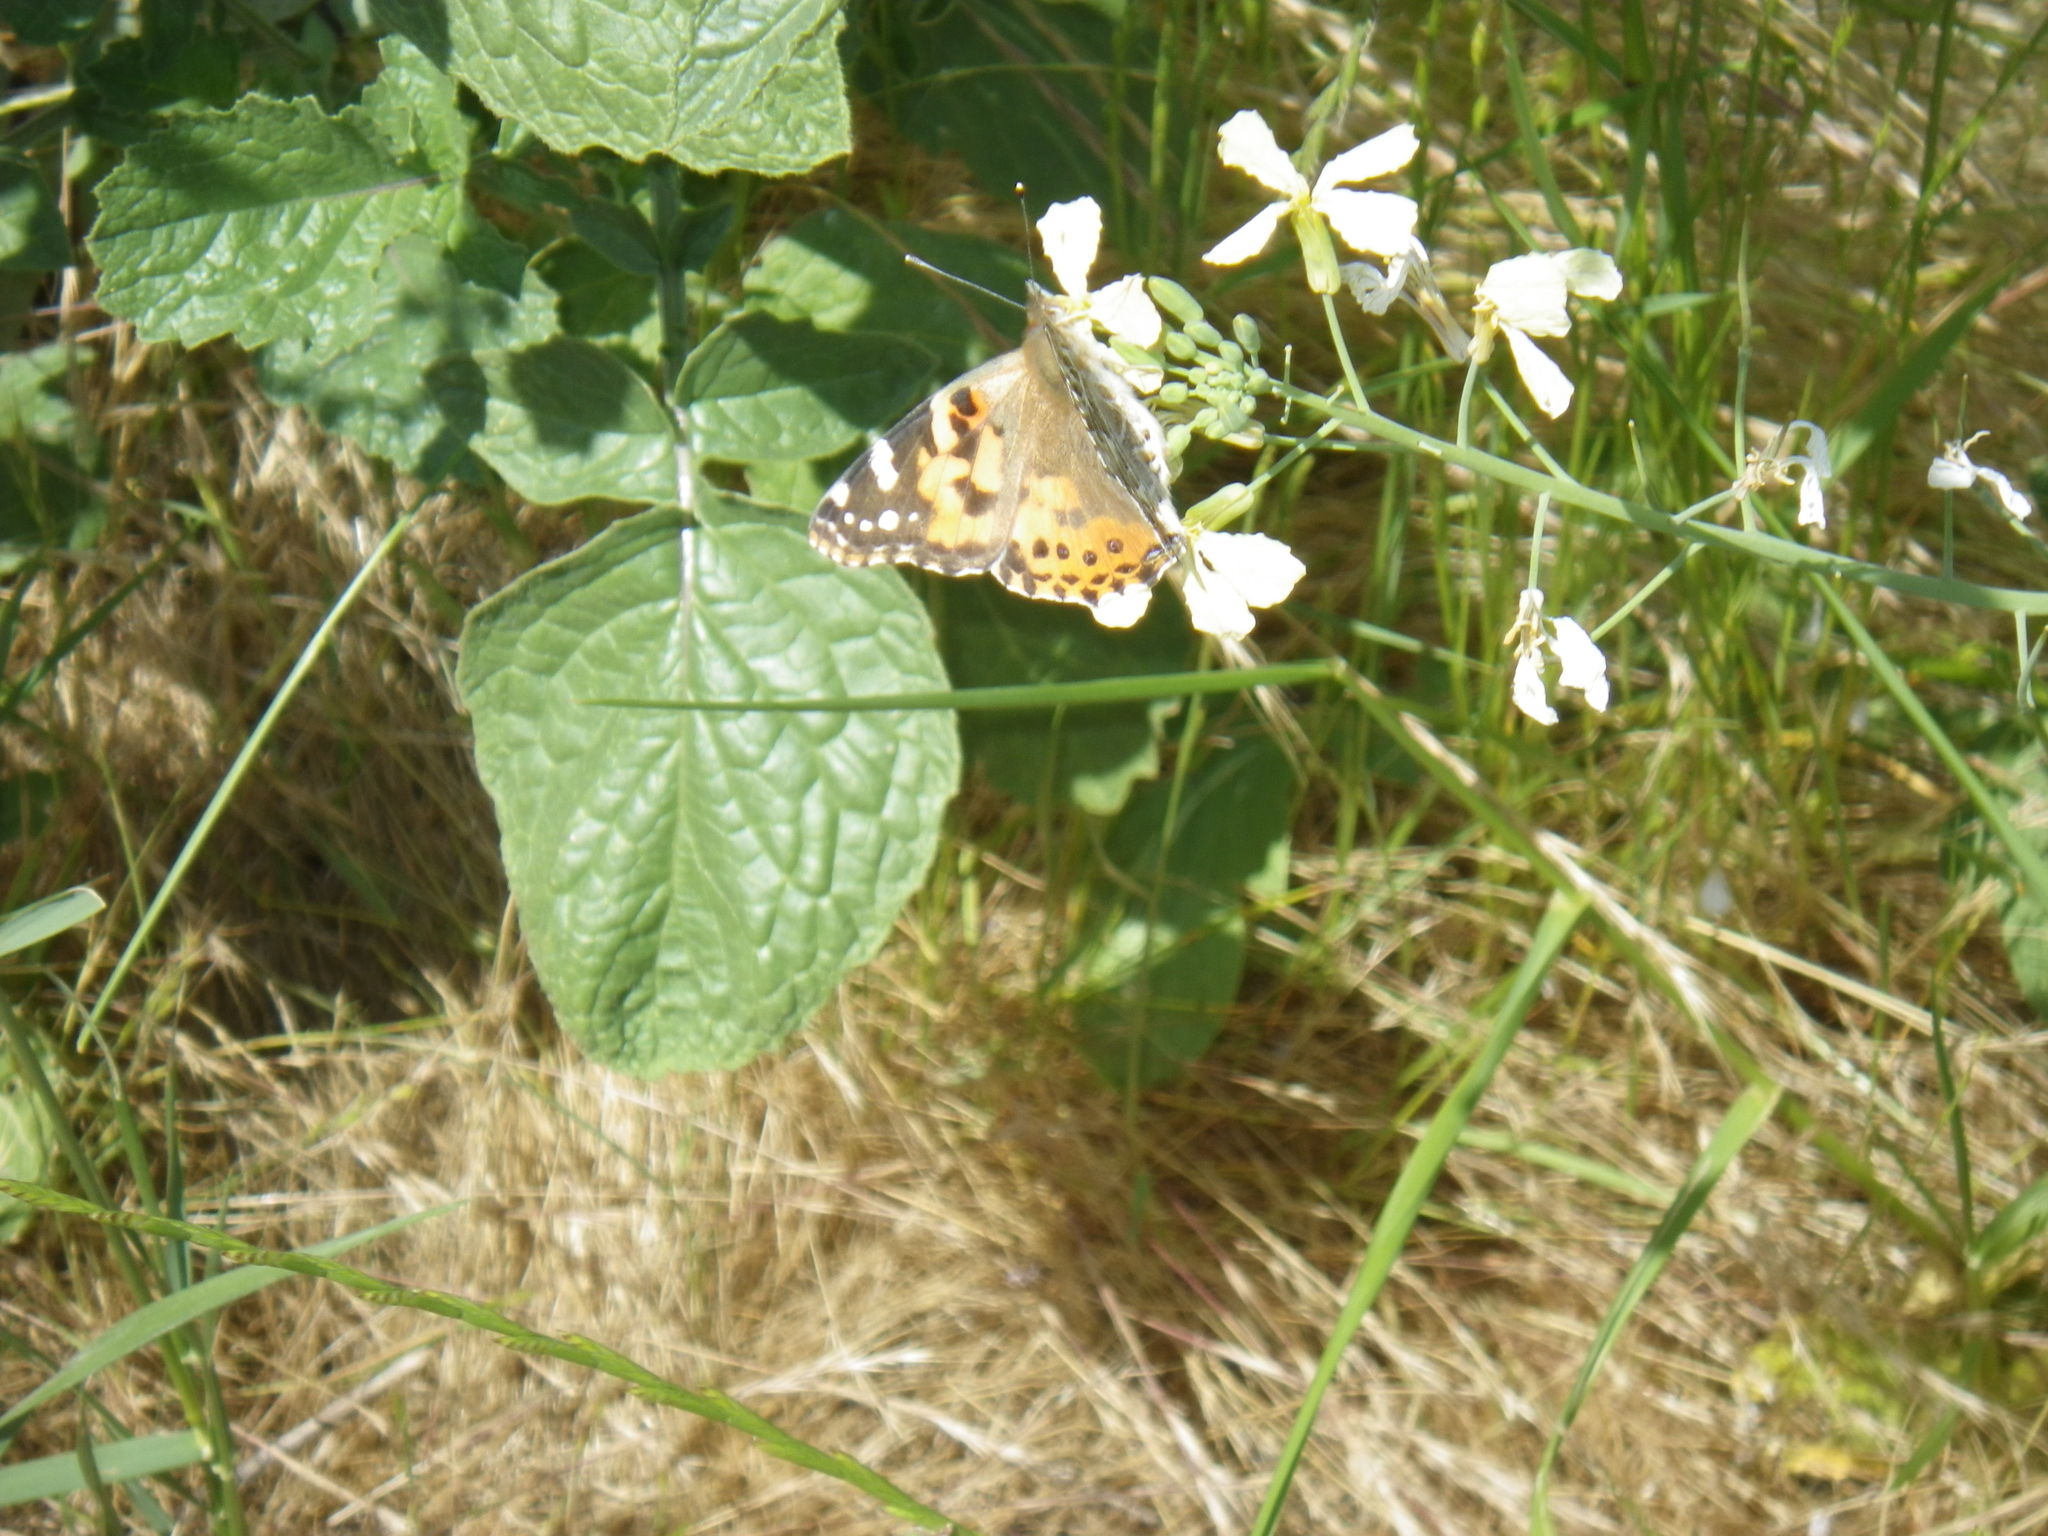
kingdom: Animalia
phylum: Arthropoda
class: Insecta
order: Lepidoptera
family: Nymphalidae
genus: Vanessa
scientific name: Vanessa cardui
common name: Painted lady
